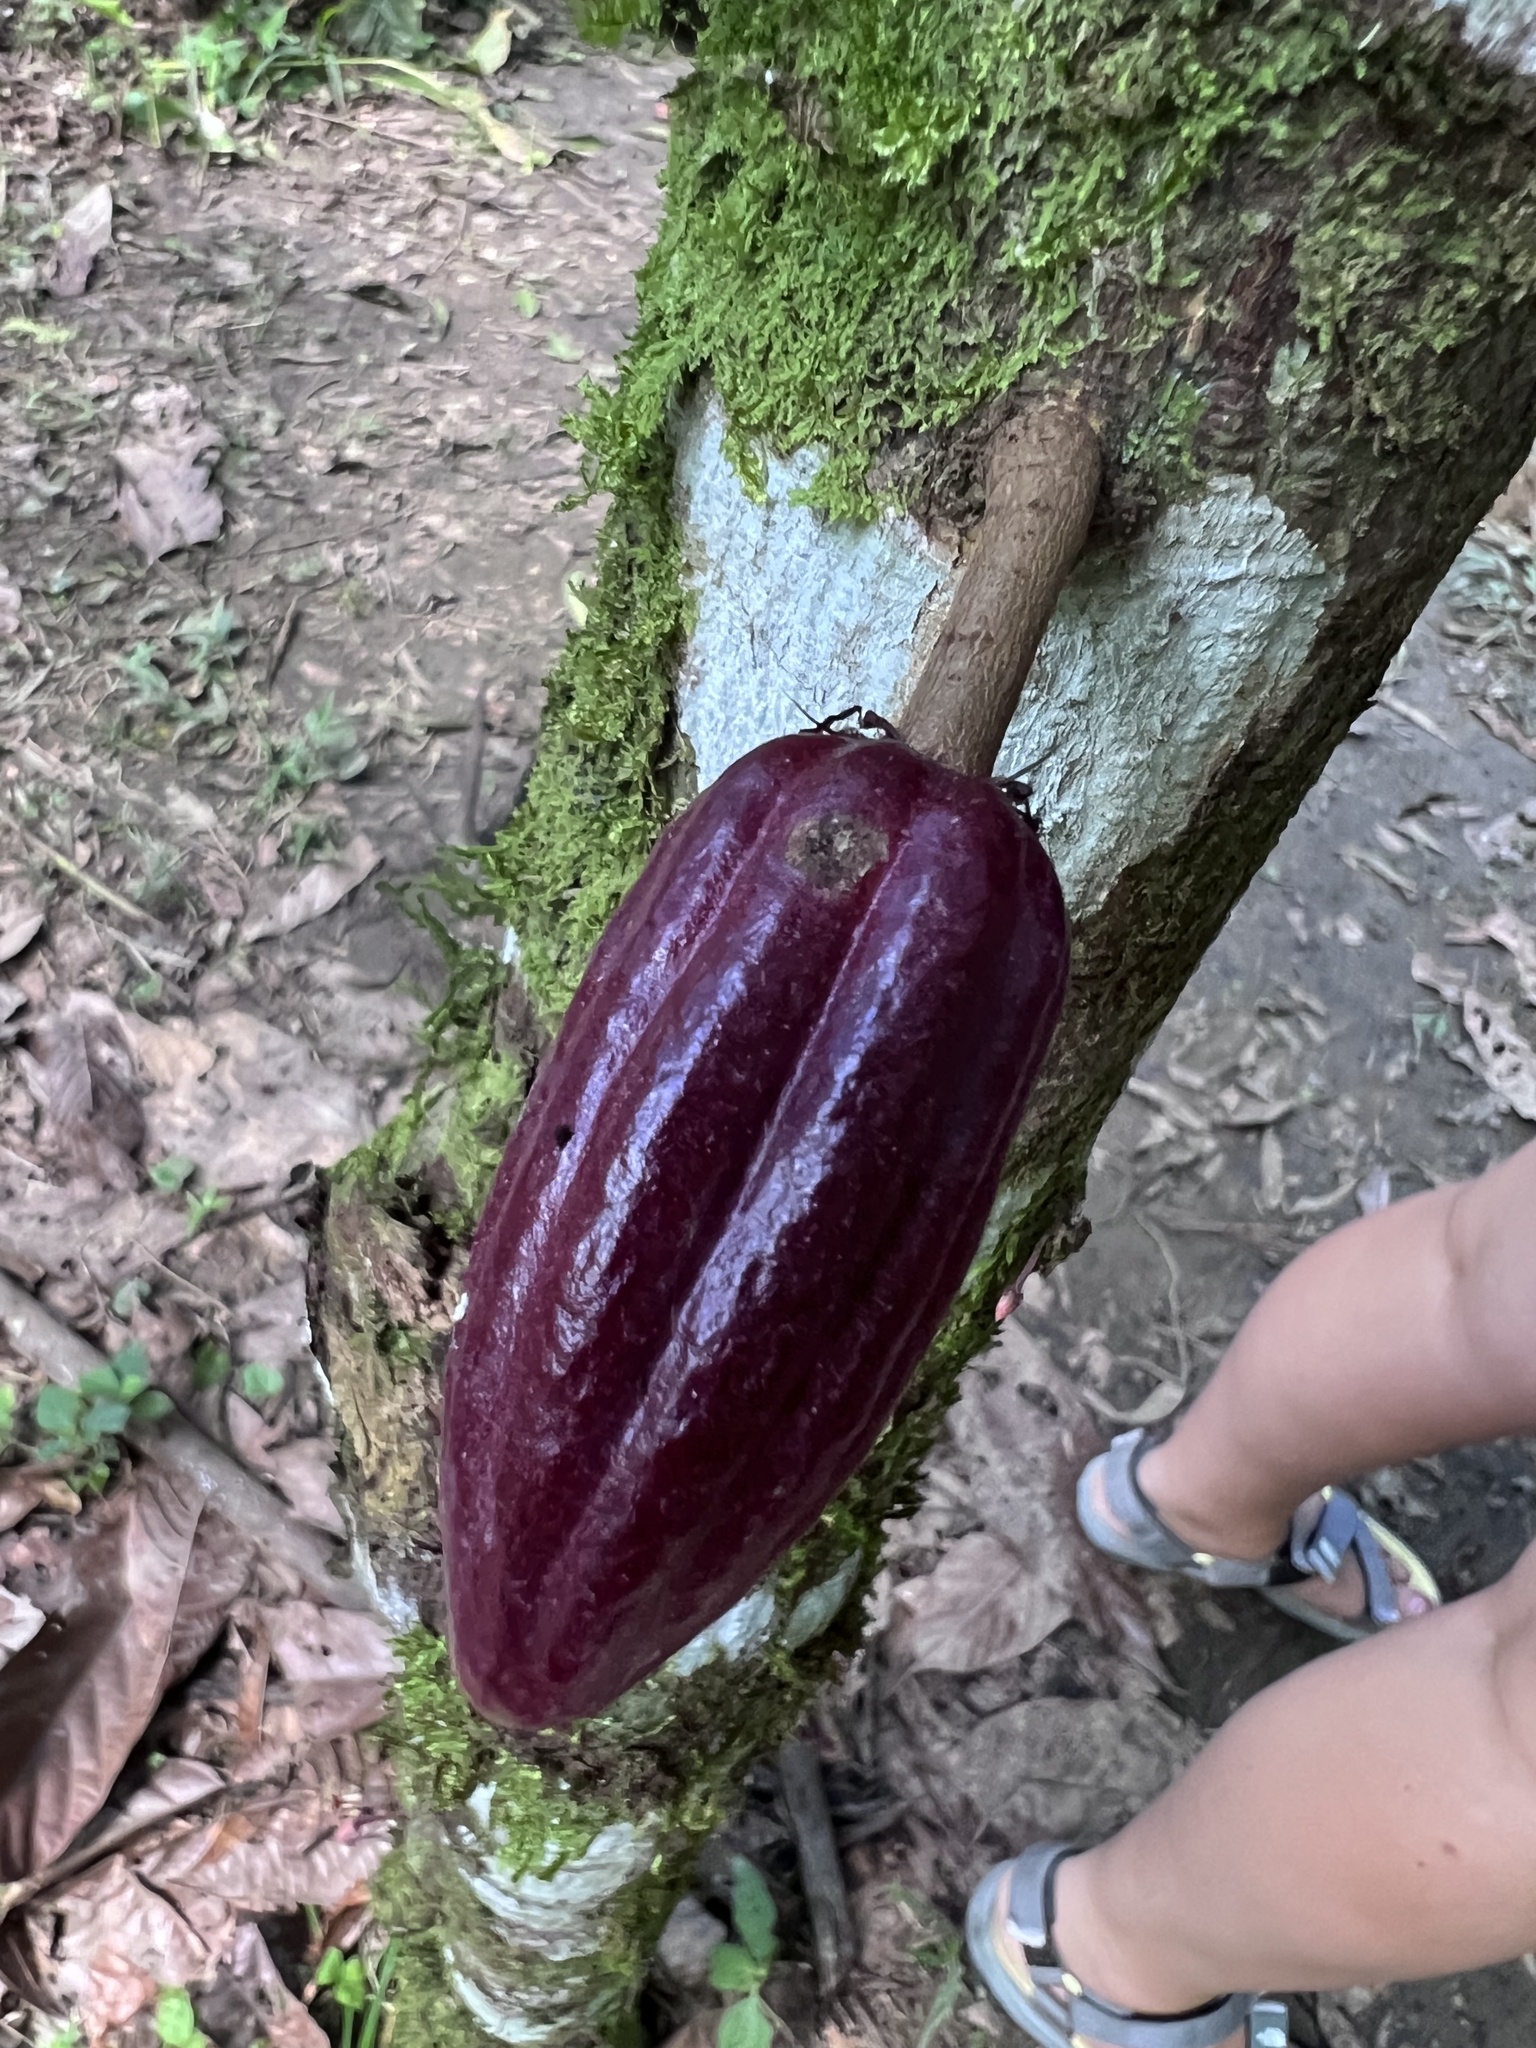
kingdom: Plantae
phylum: Tracheophyta
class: Magnoliopsida
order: Malvales
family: Malvaceae
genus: Theobroma
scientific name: Theobroma cacao
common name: Cocoa
